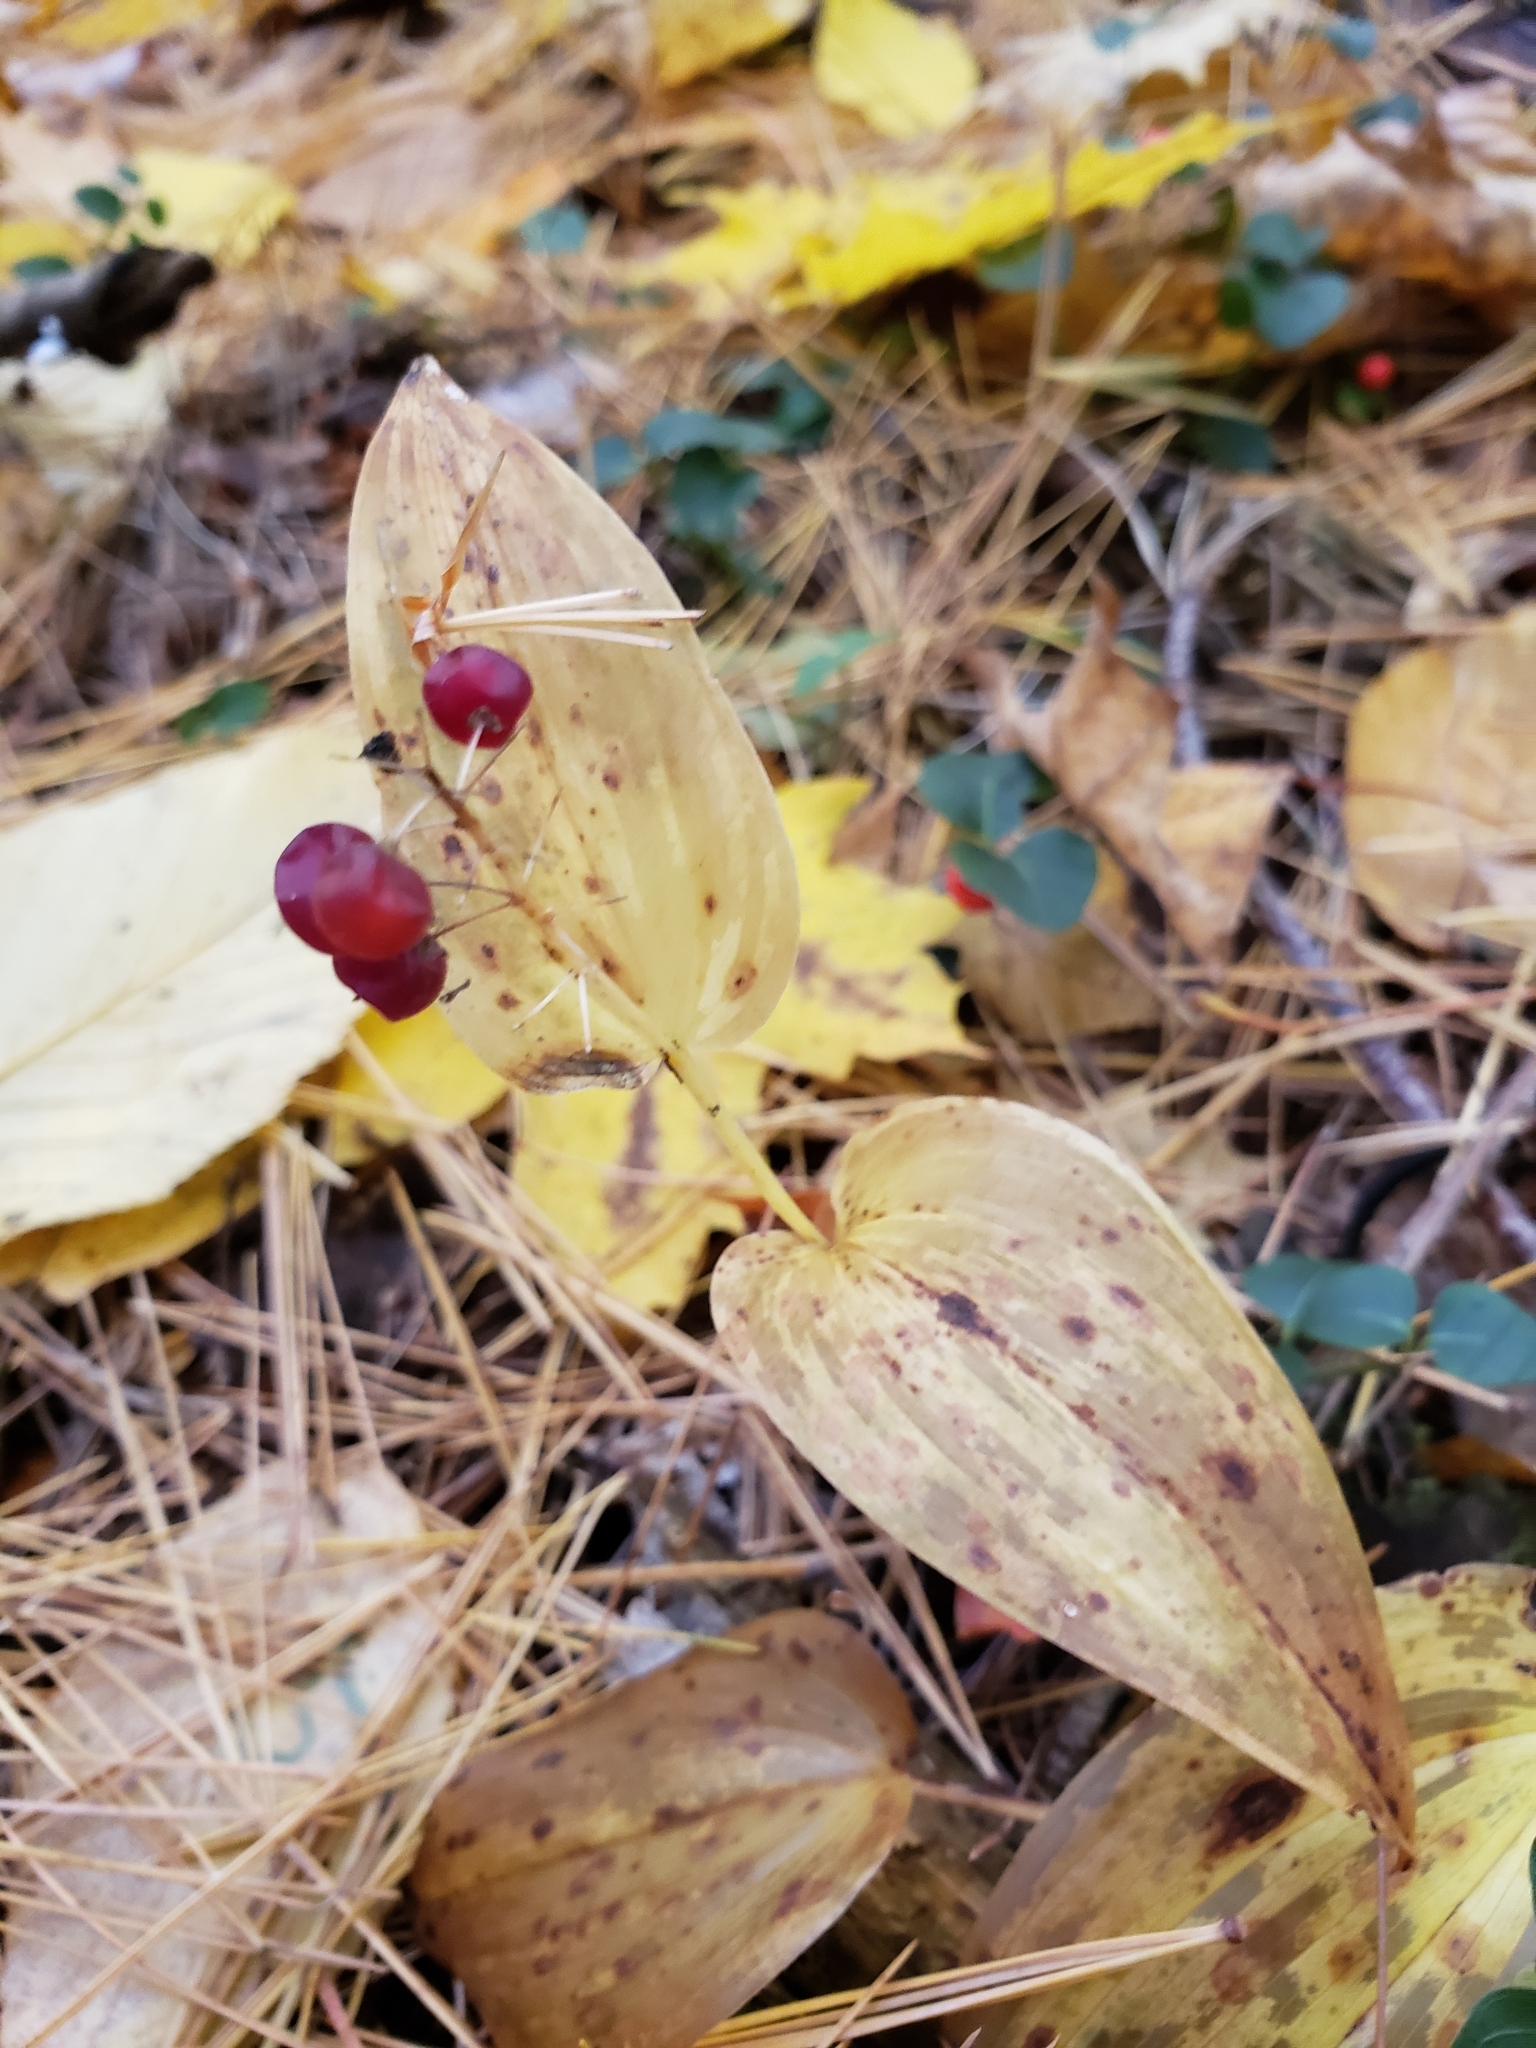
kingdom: Plantae
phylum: Tracheophyta
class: Liliopsida
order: Asparagales
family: Asparagaceae
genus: Maianthemum
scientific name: Maianthemum canadense
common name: False lily-of-the-valley
